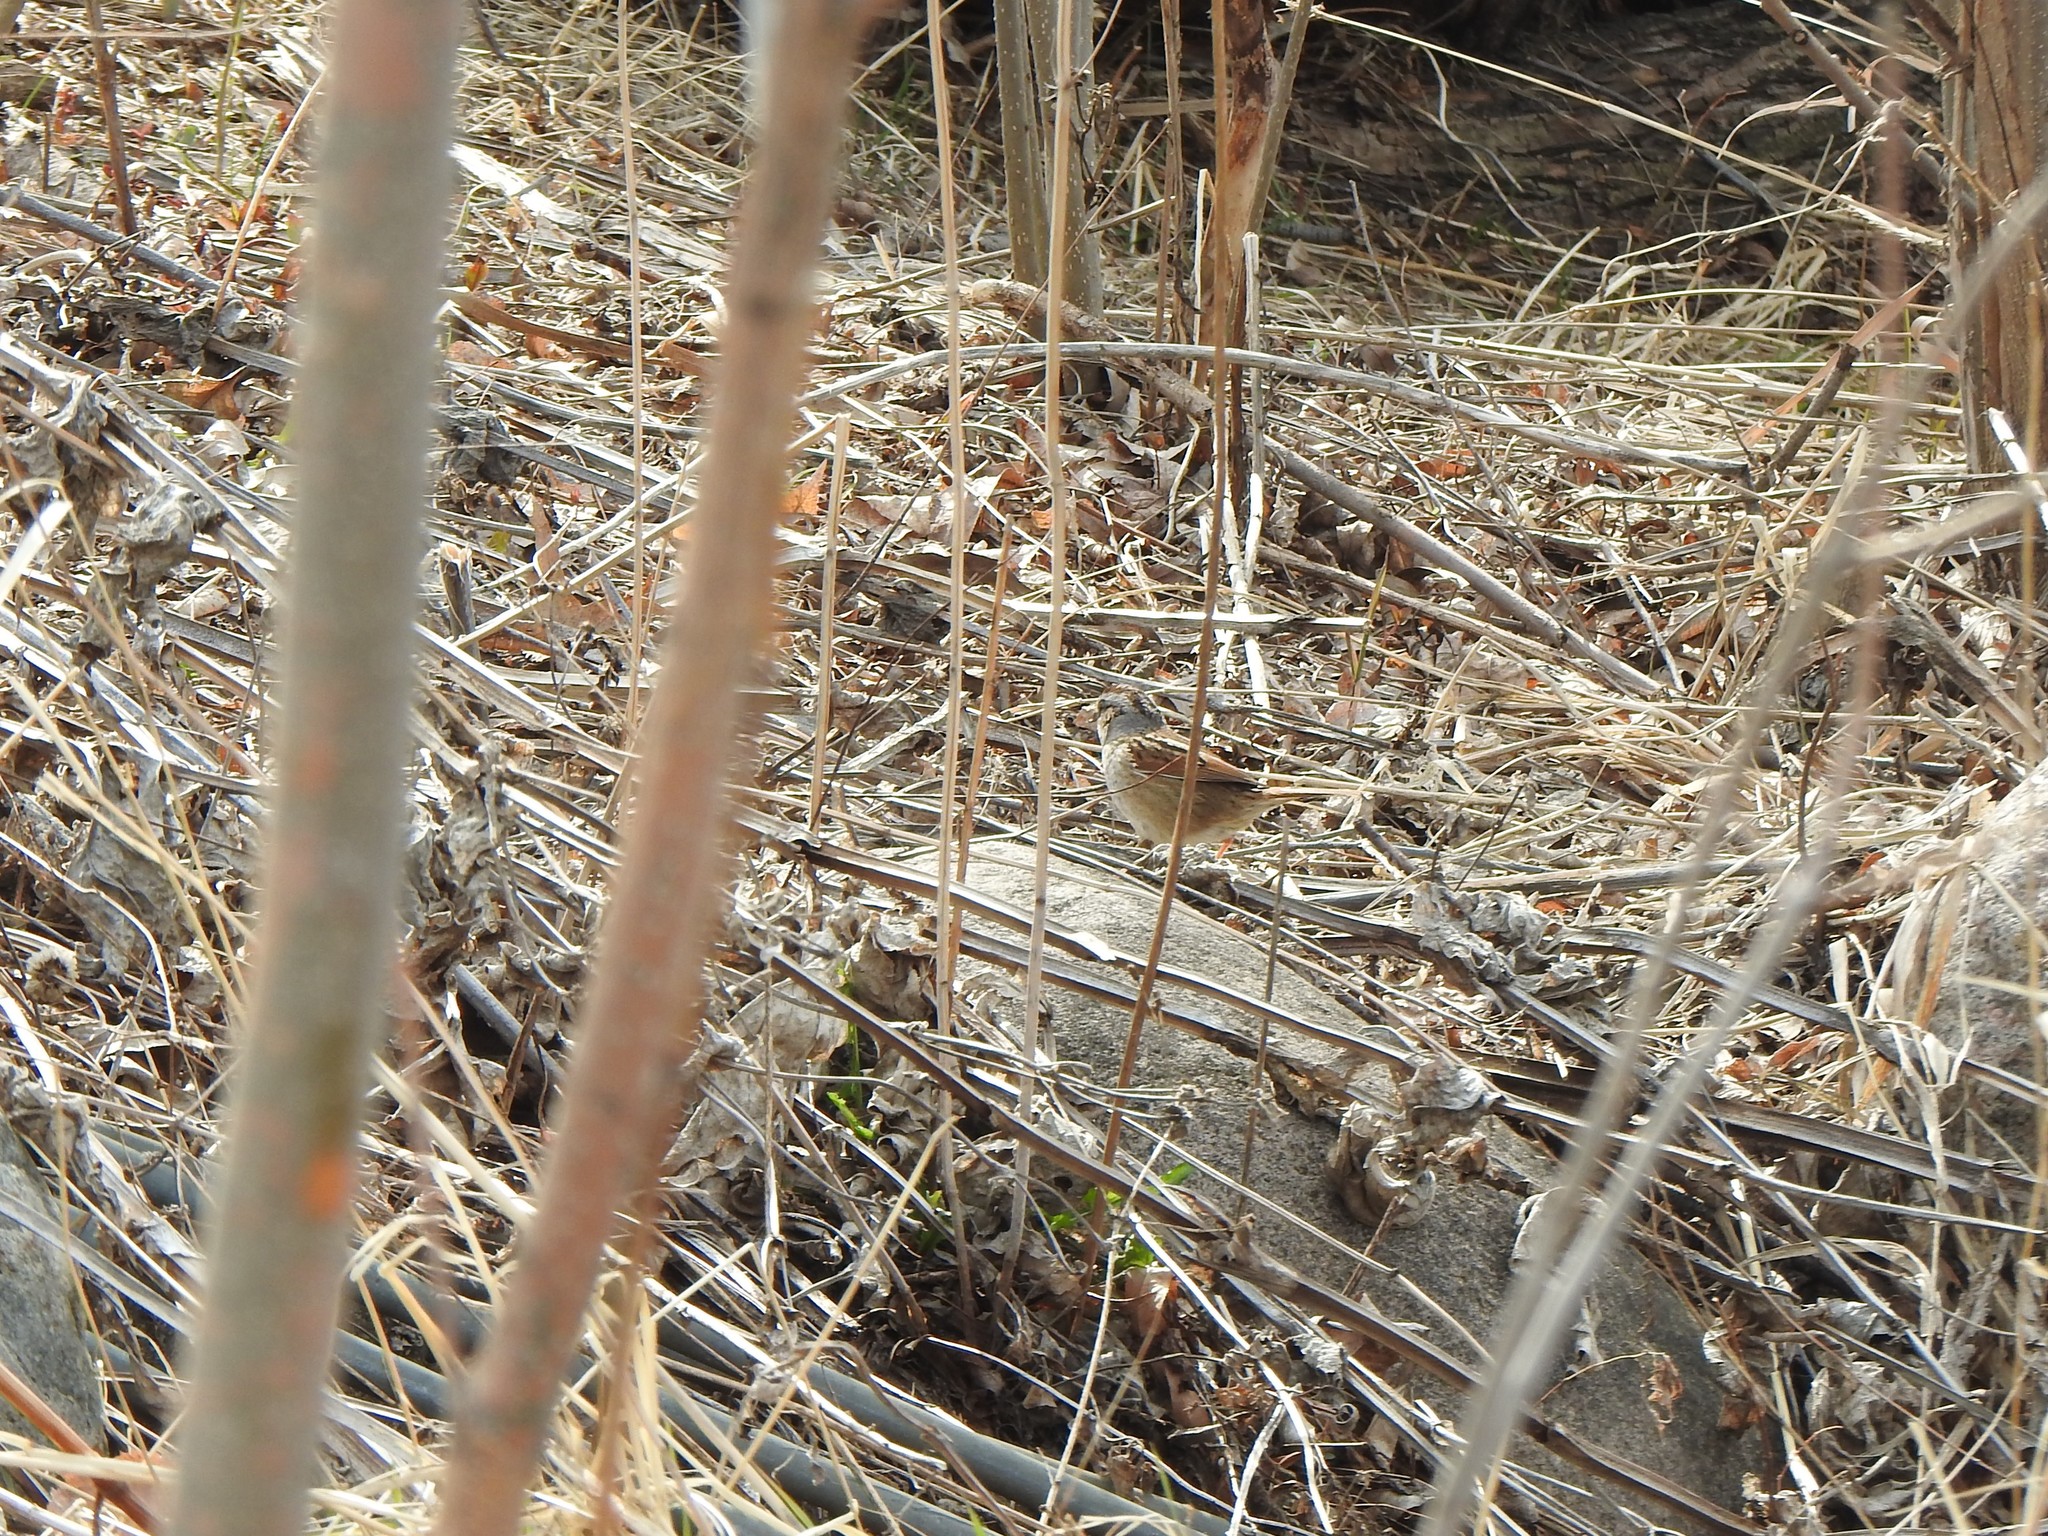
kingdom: Animalia
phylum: Chordata
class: Aves
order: Passeriformes
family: Passerellidae
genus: Melospiza
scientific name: Melospiza georgiana
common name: Swamp sparrow
